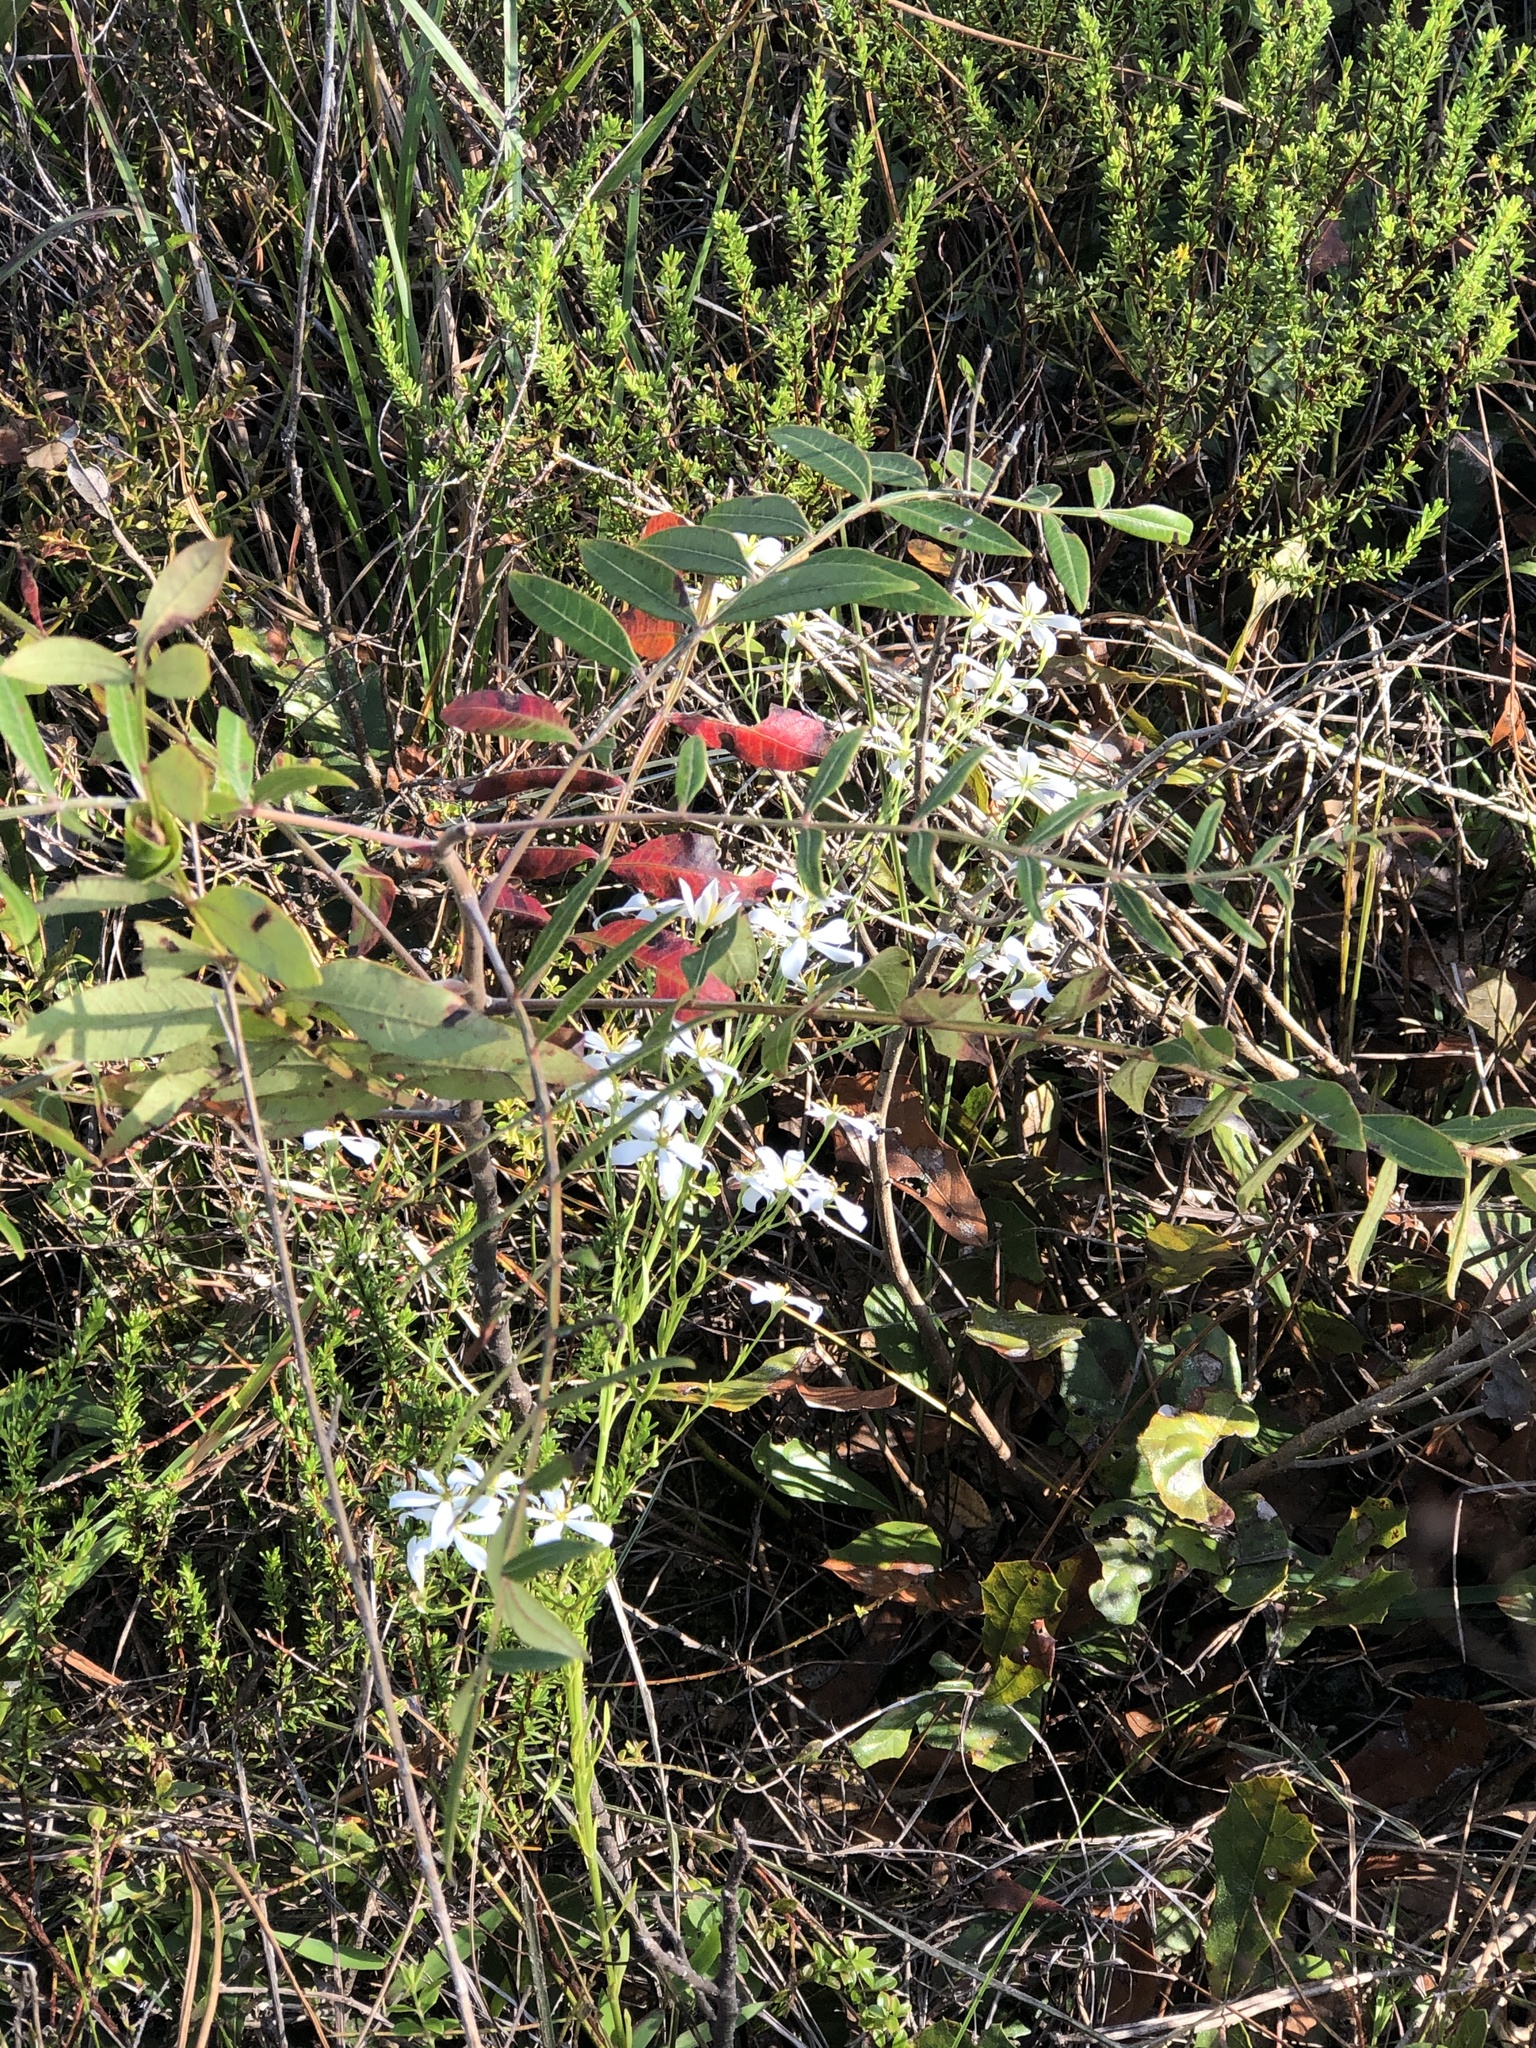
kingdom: Plantae
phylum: Tracheophyta
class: Magnoliopsida
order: Gentianales
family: Gentianaceae
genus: Sabatia
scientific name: Sabatia brevifolia
